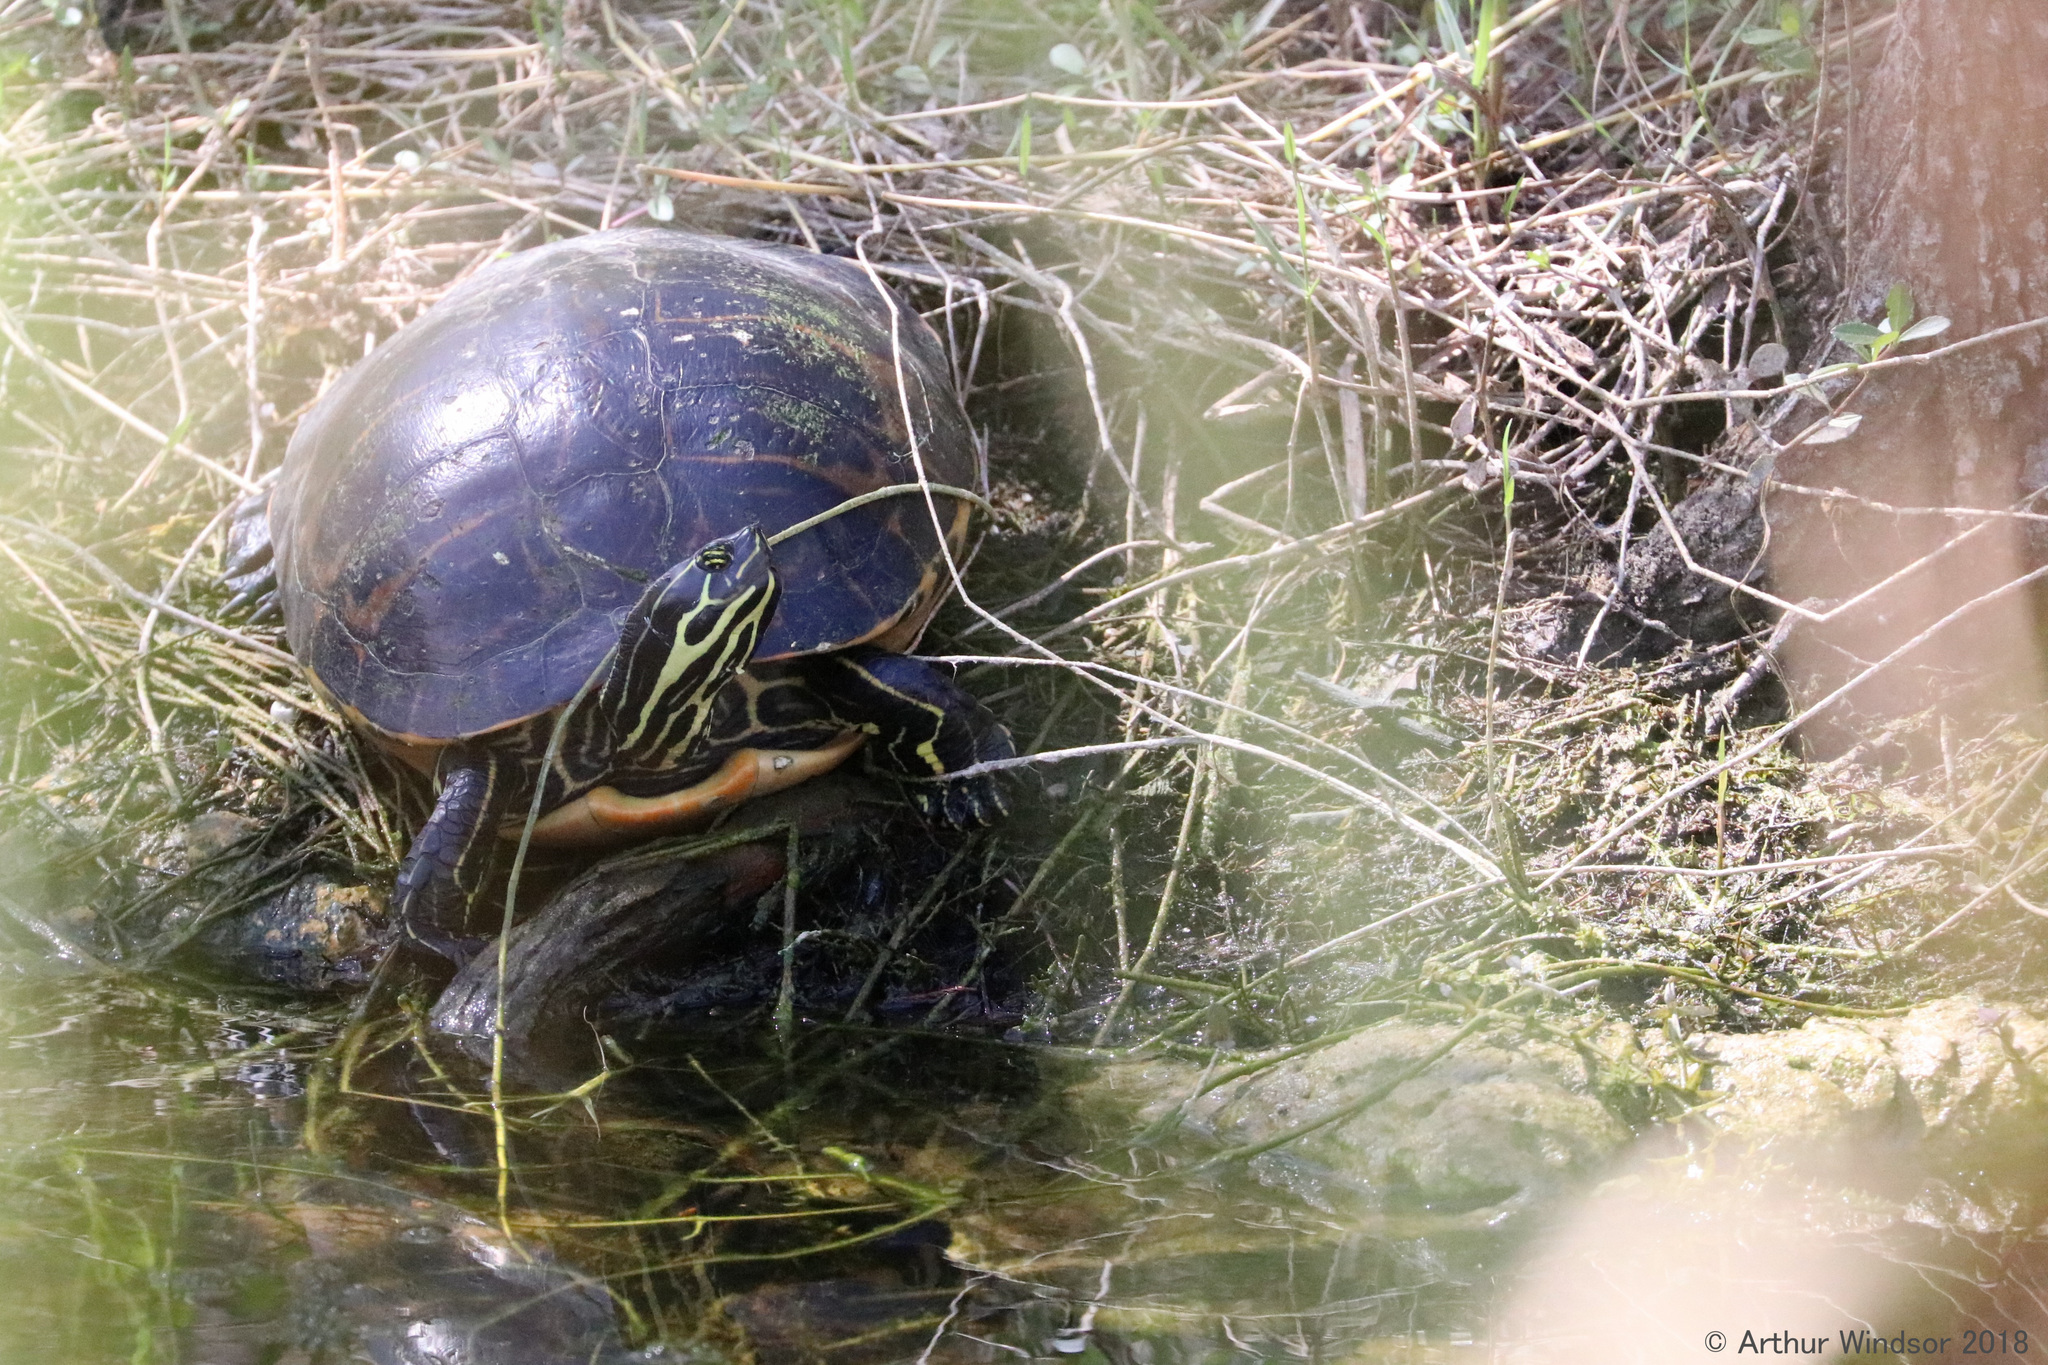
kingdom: Animalia
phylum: Chordata
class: Testudines
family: Emydidae
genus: Pseudemys
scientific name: Pseudemys peninsularis
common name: Peninsula cooter
